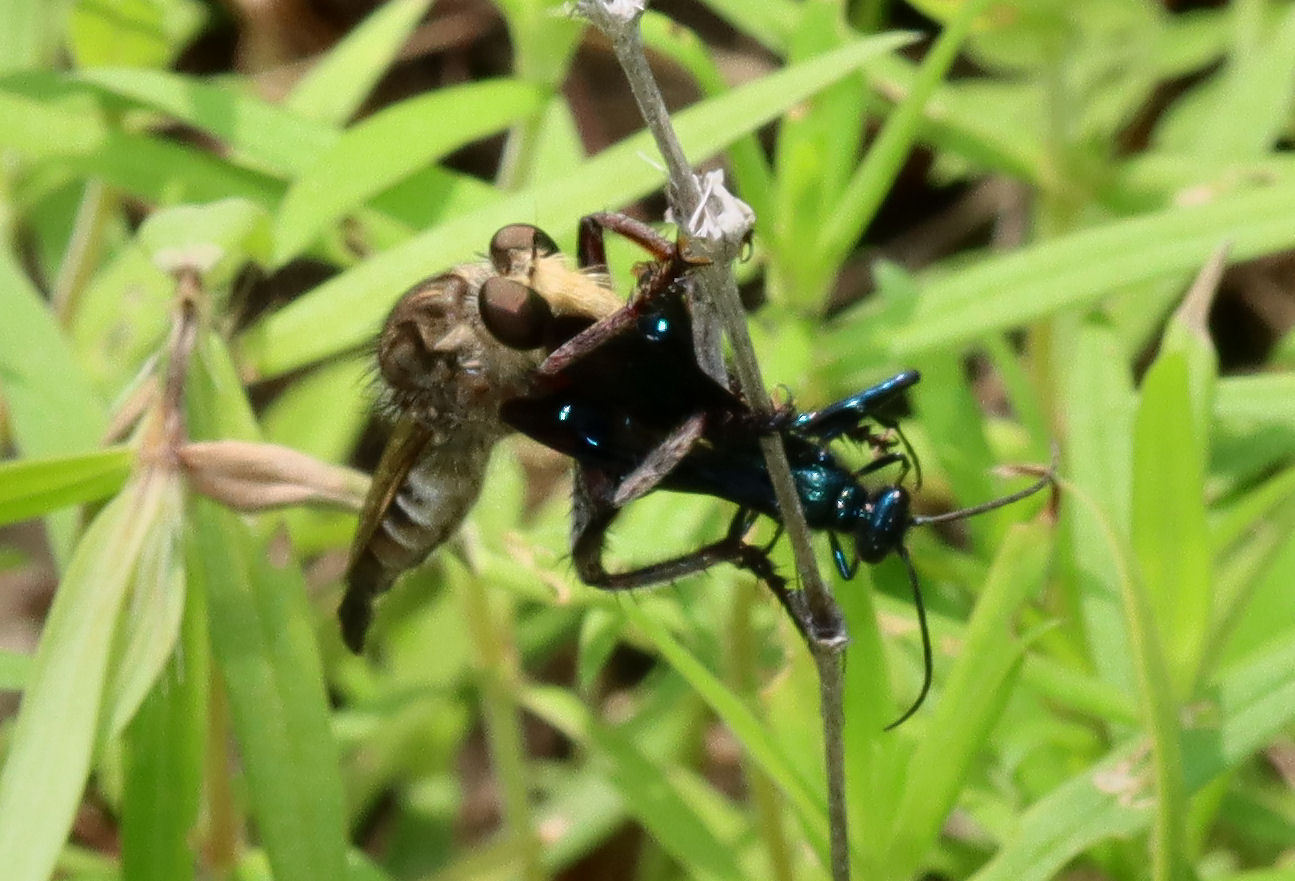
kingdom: Animalia
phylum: Arthropoda
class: Insecta
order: Hymenoptera
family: Sphecidae
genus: Chalybion
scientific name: Chalybion californicum
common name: Mud dauber
